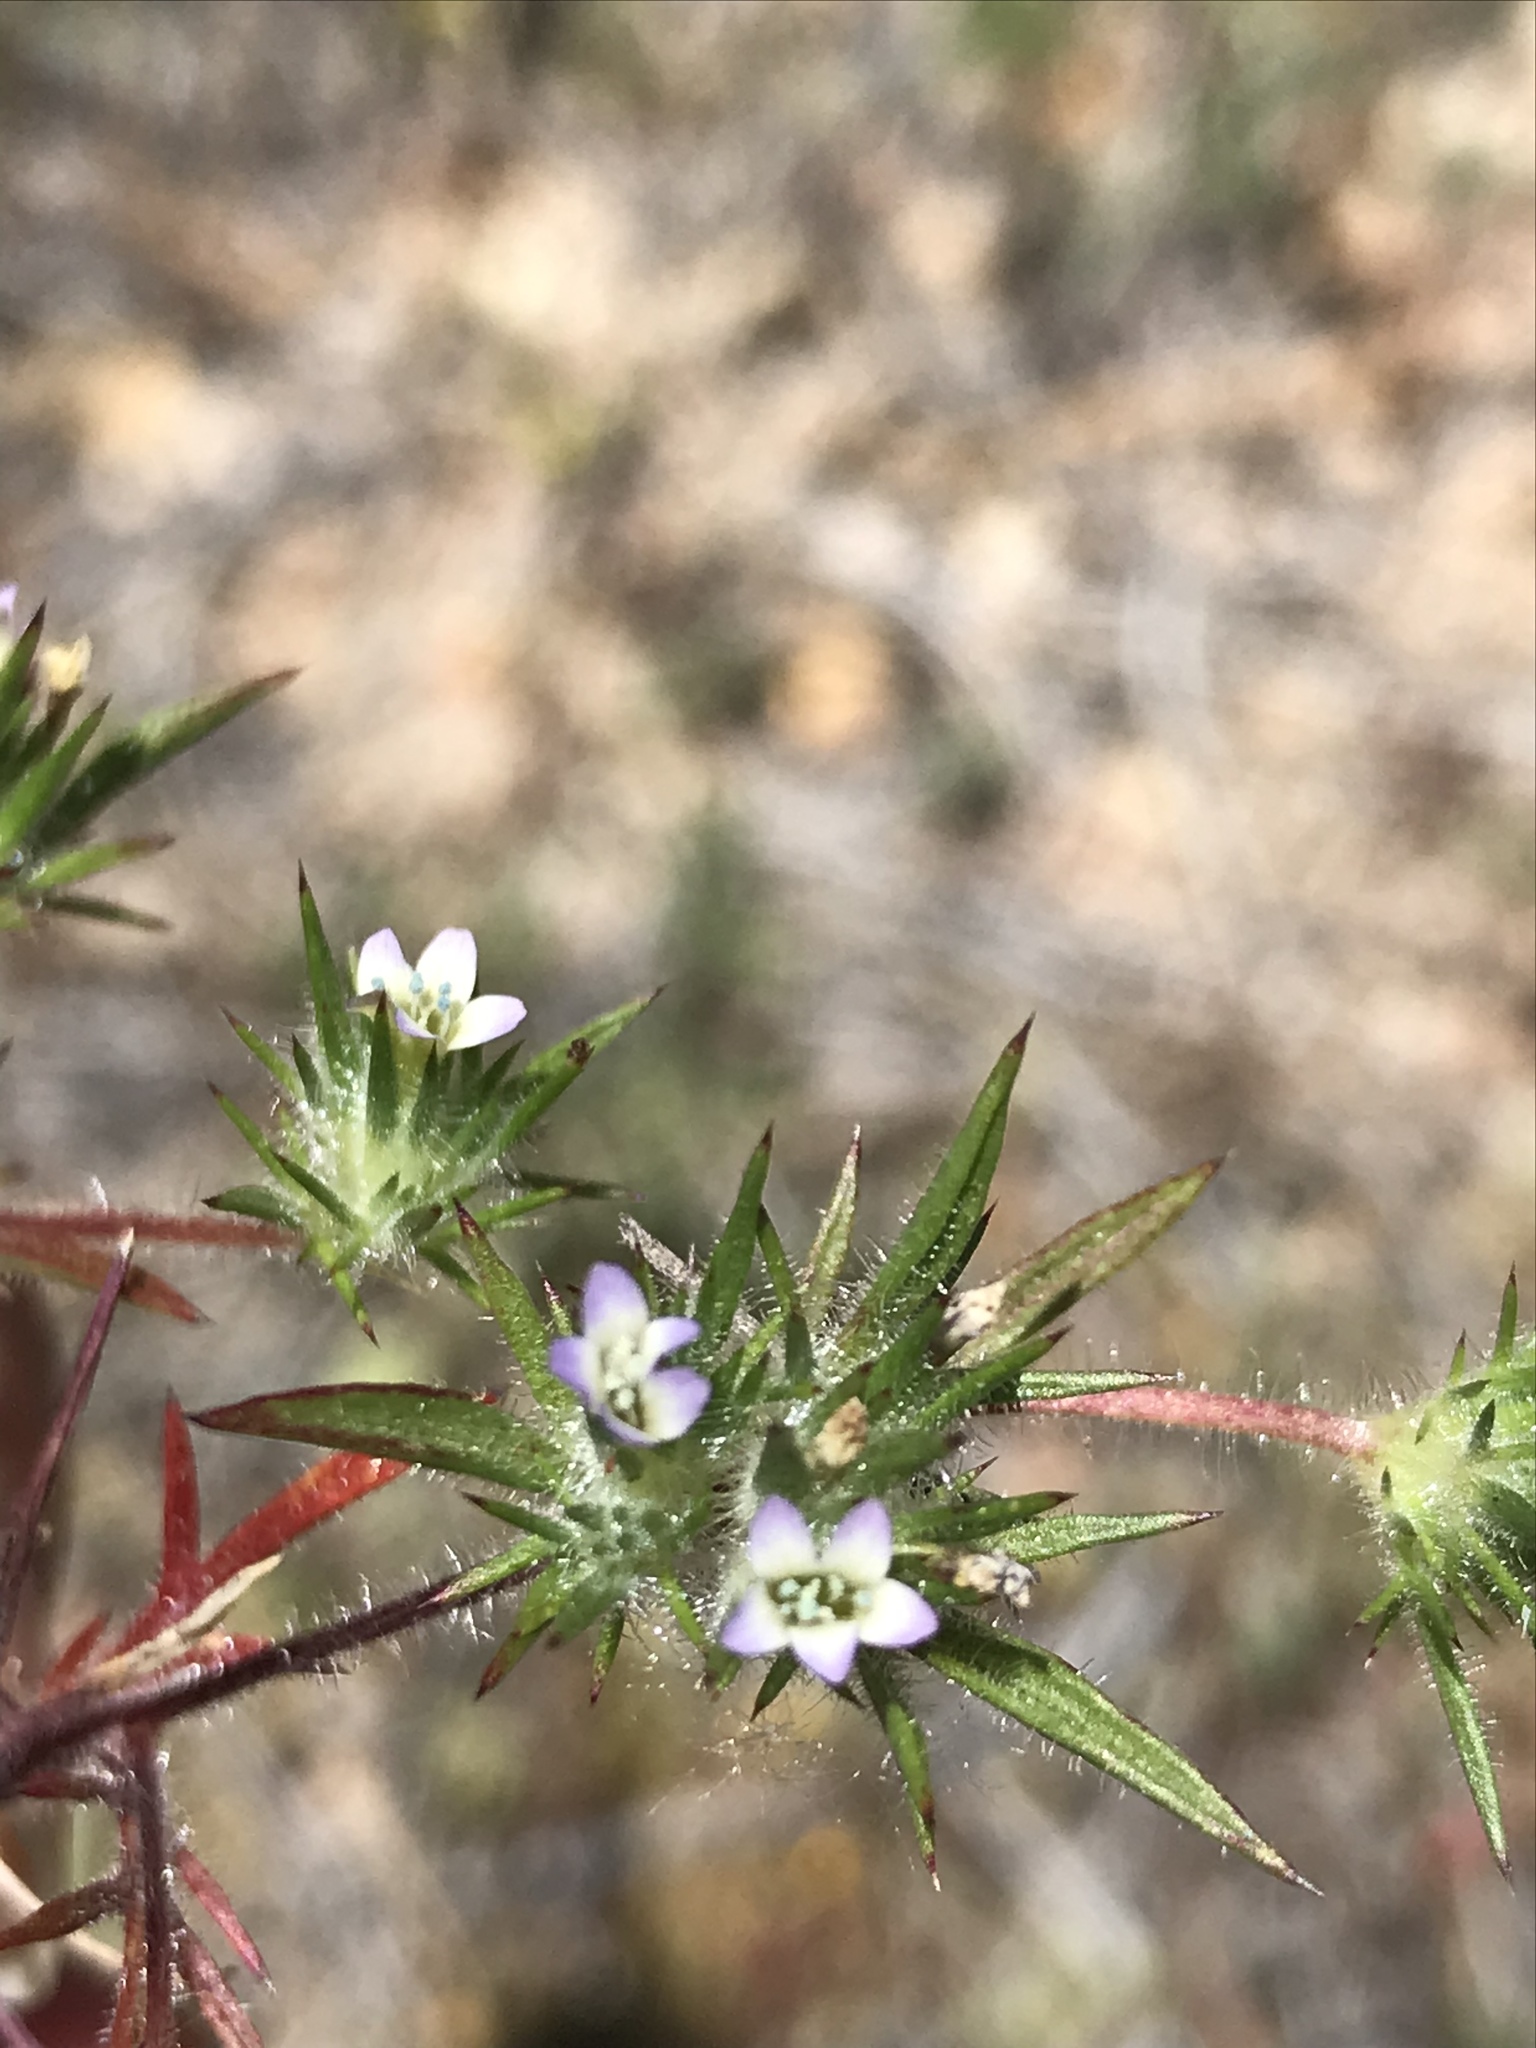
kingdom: Plantae
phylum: Tracheophyta
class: Magnoliopsida
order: Ericales
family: Polemoniaceae
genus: Navarretia
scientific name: Navarretia peninsularis
